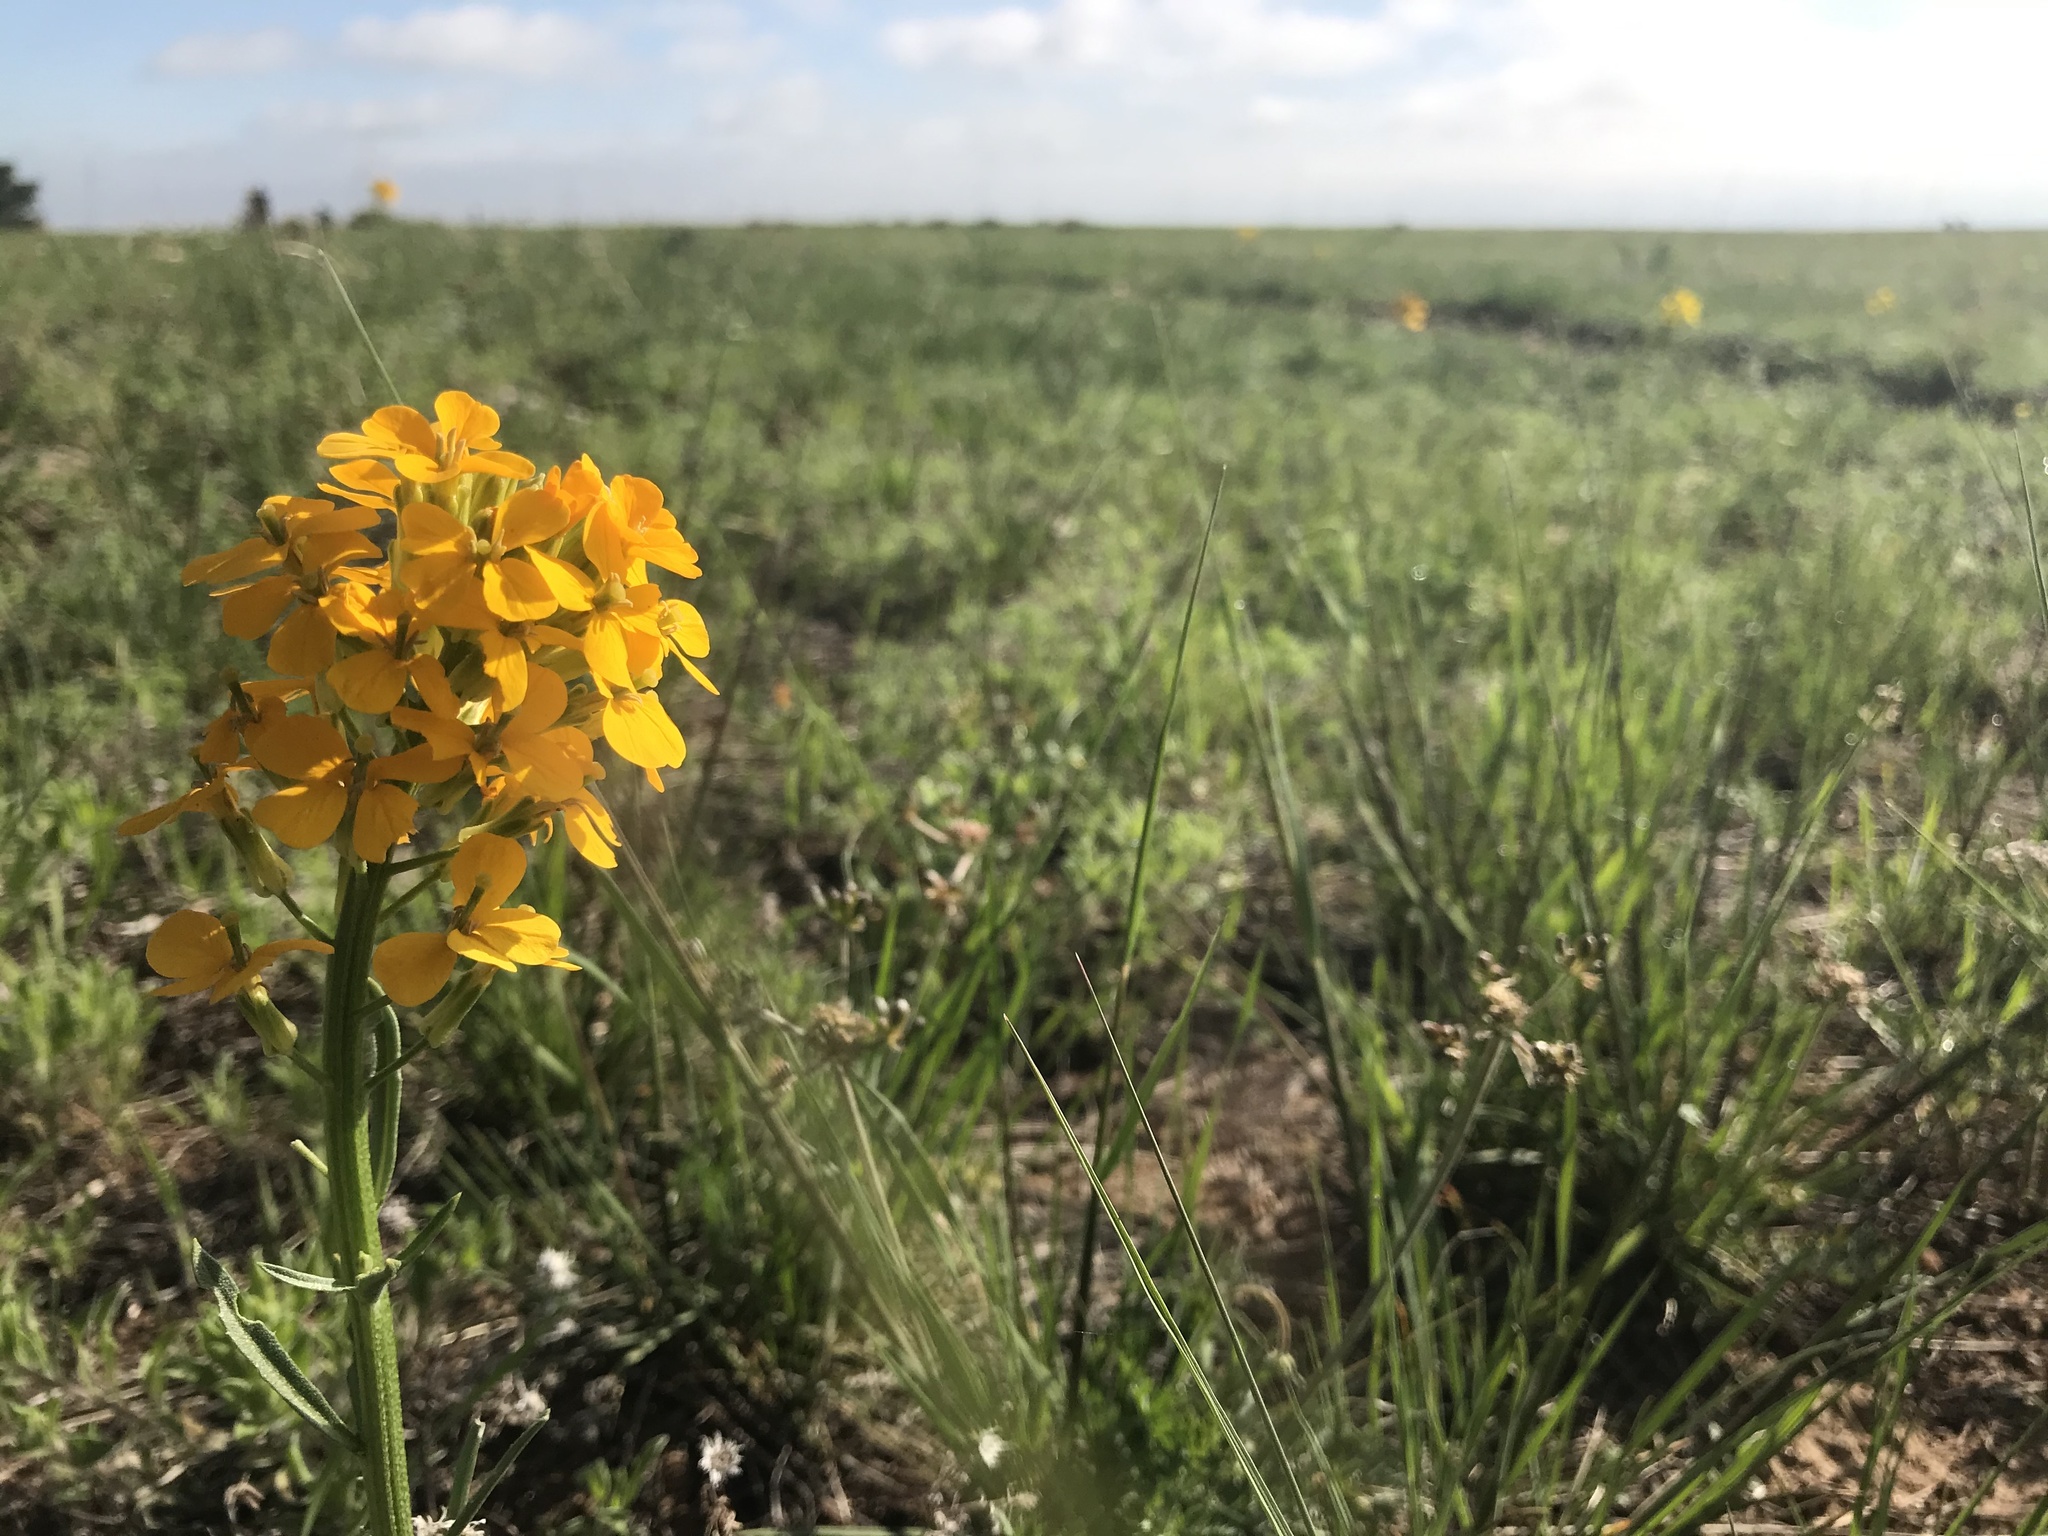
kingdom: Plantae
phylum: Tracheophyta
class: Magnoliopsida
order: Brassicales
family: Brassicaceae
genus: Erysimum
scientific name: Erysimum capitatum
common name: Western wallflower
